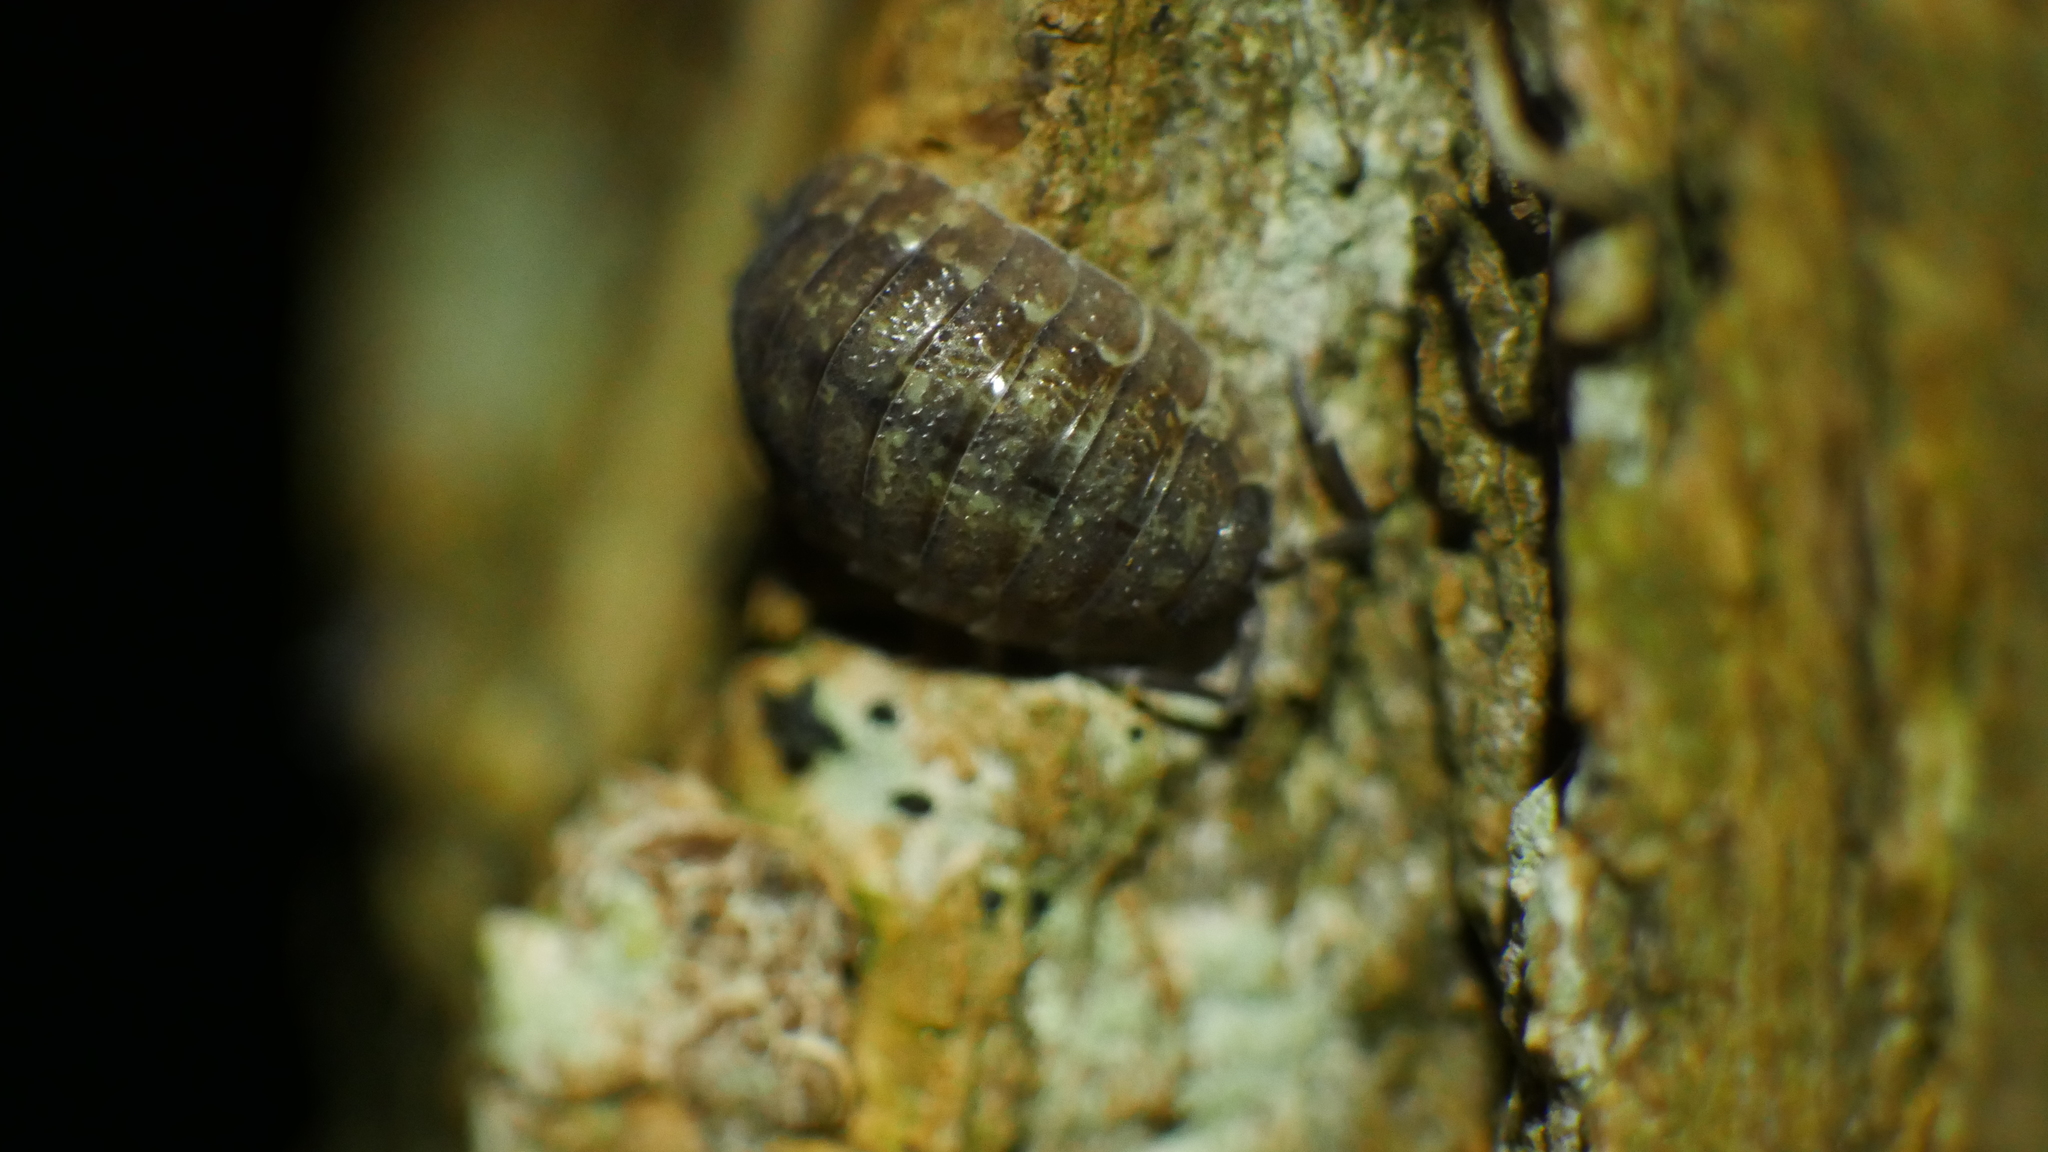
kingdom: Animalia
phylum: Arthropoda
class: Malacostraca
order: Isopoda
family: Porcellionidae
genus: Porcellio
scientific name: Porcellio scaber
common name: Common rough woodlouse
